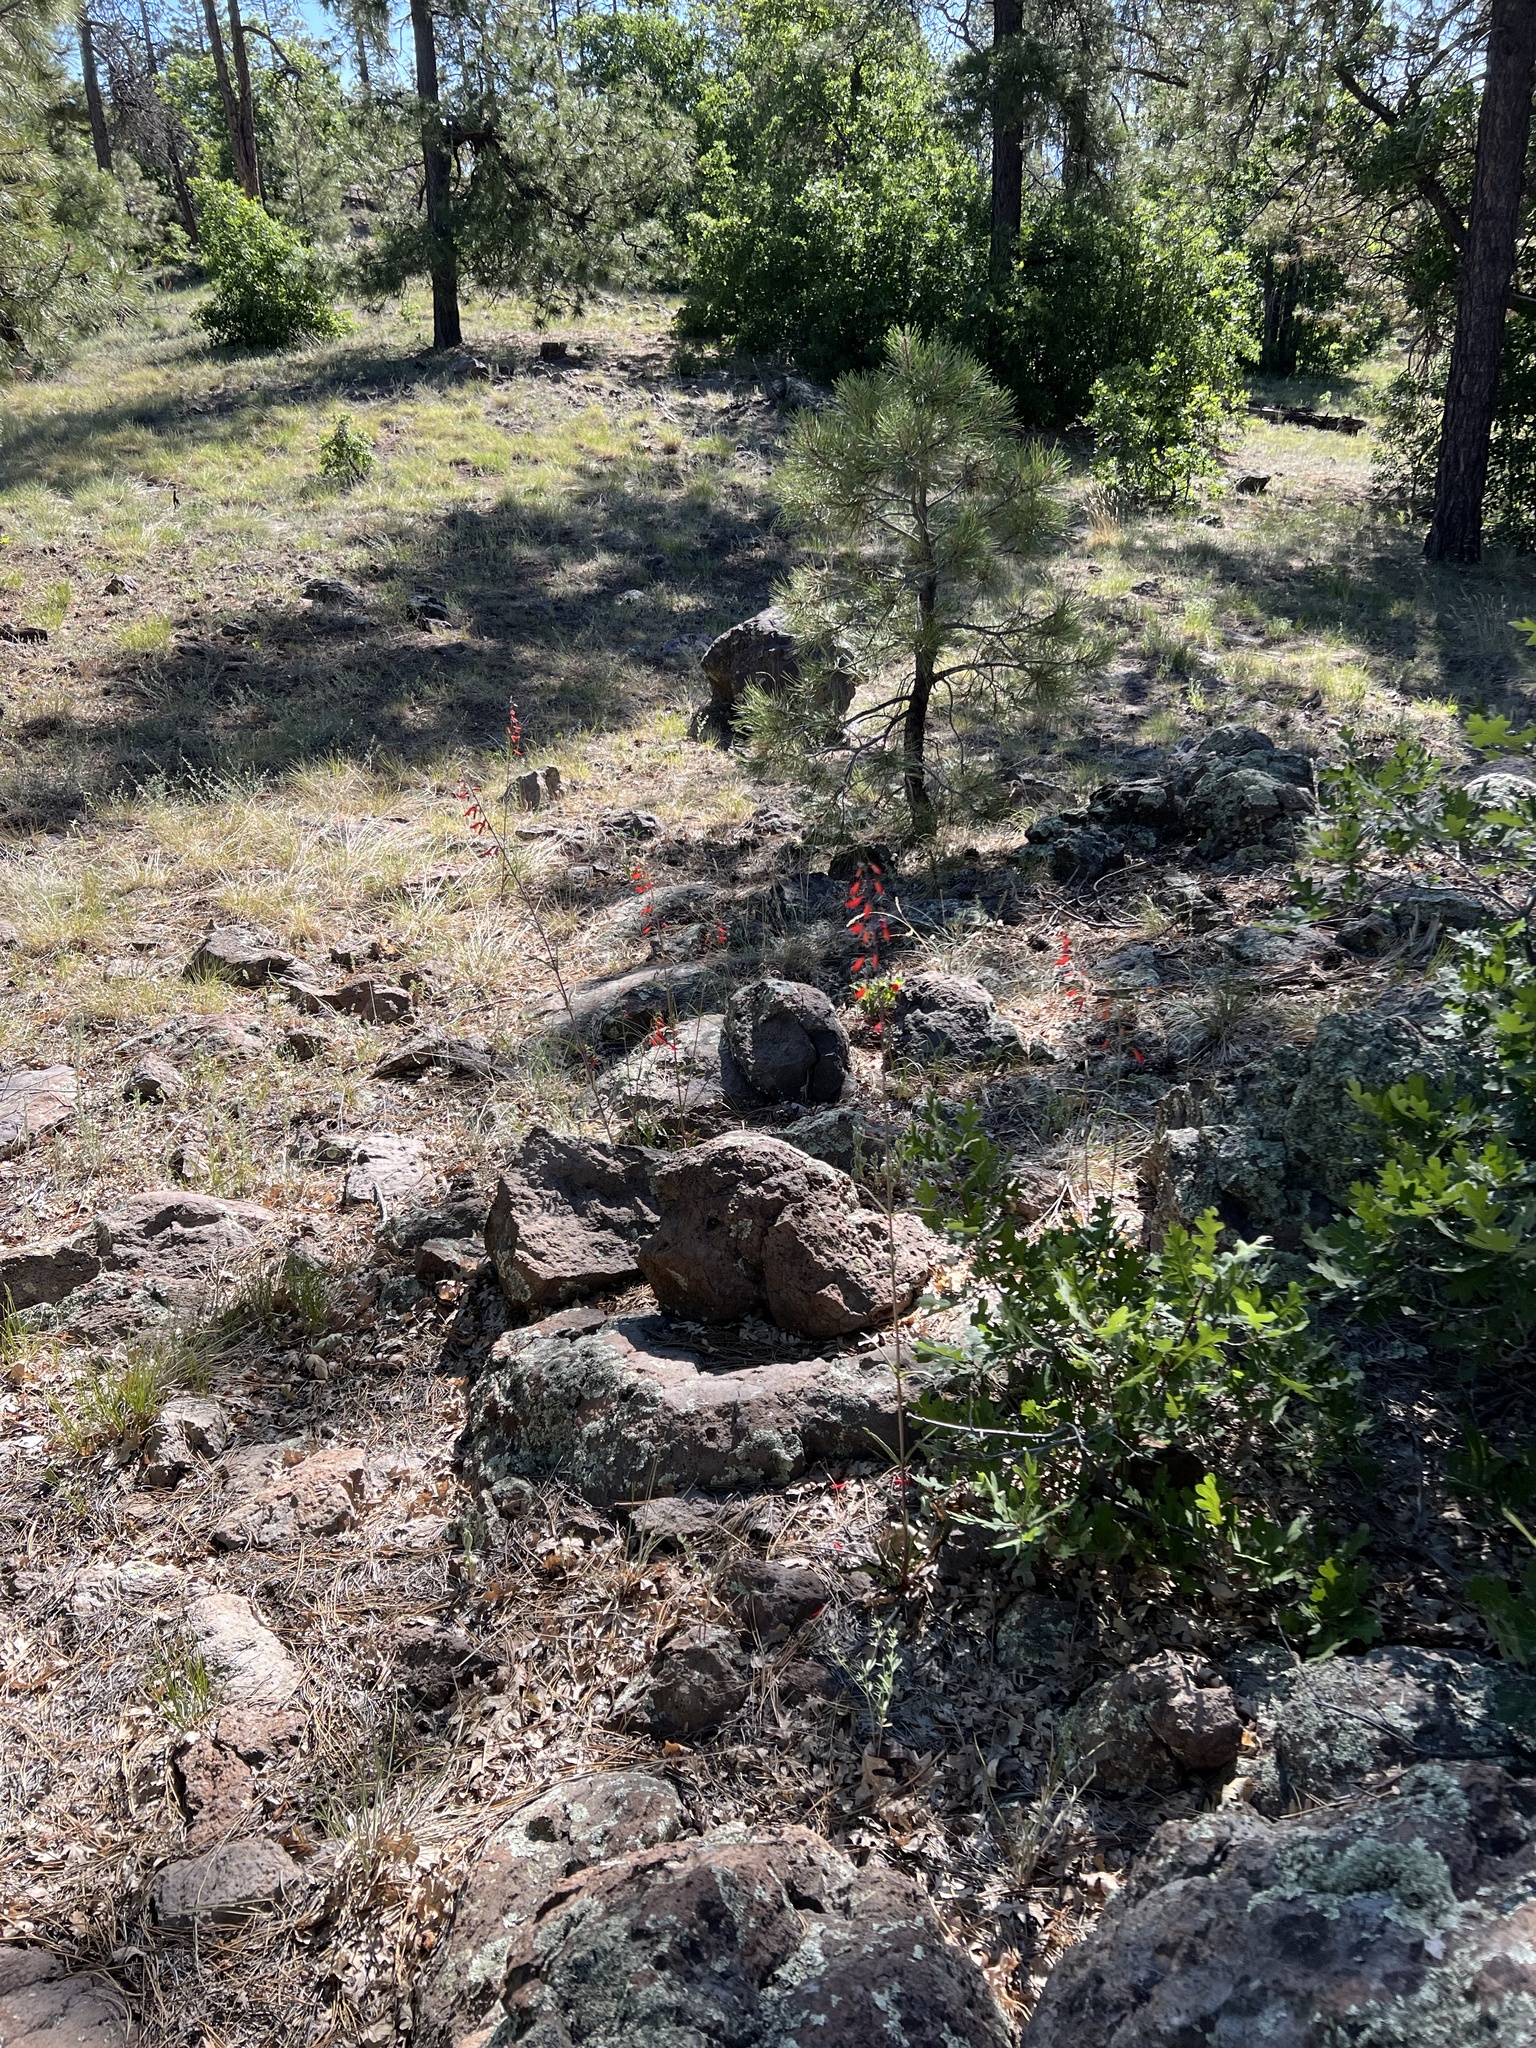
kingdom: Plantae
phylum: Tracheophyta
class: Magnoliopsida
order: Lamiales
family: Plantaginaceae
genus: Penstemon
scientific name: Penstemon barbatus
